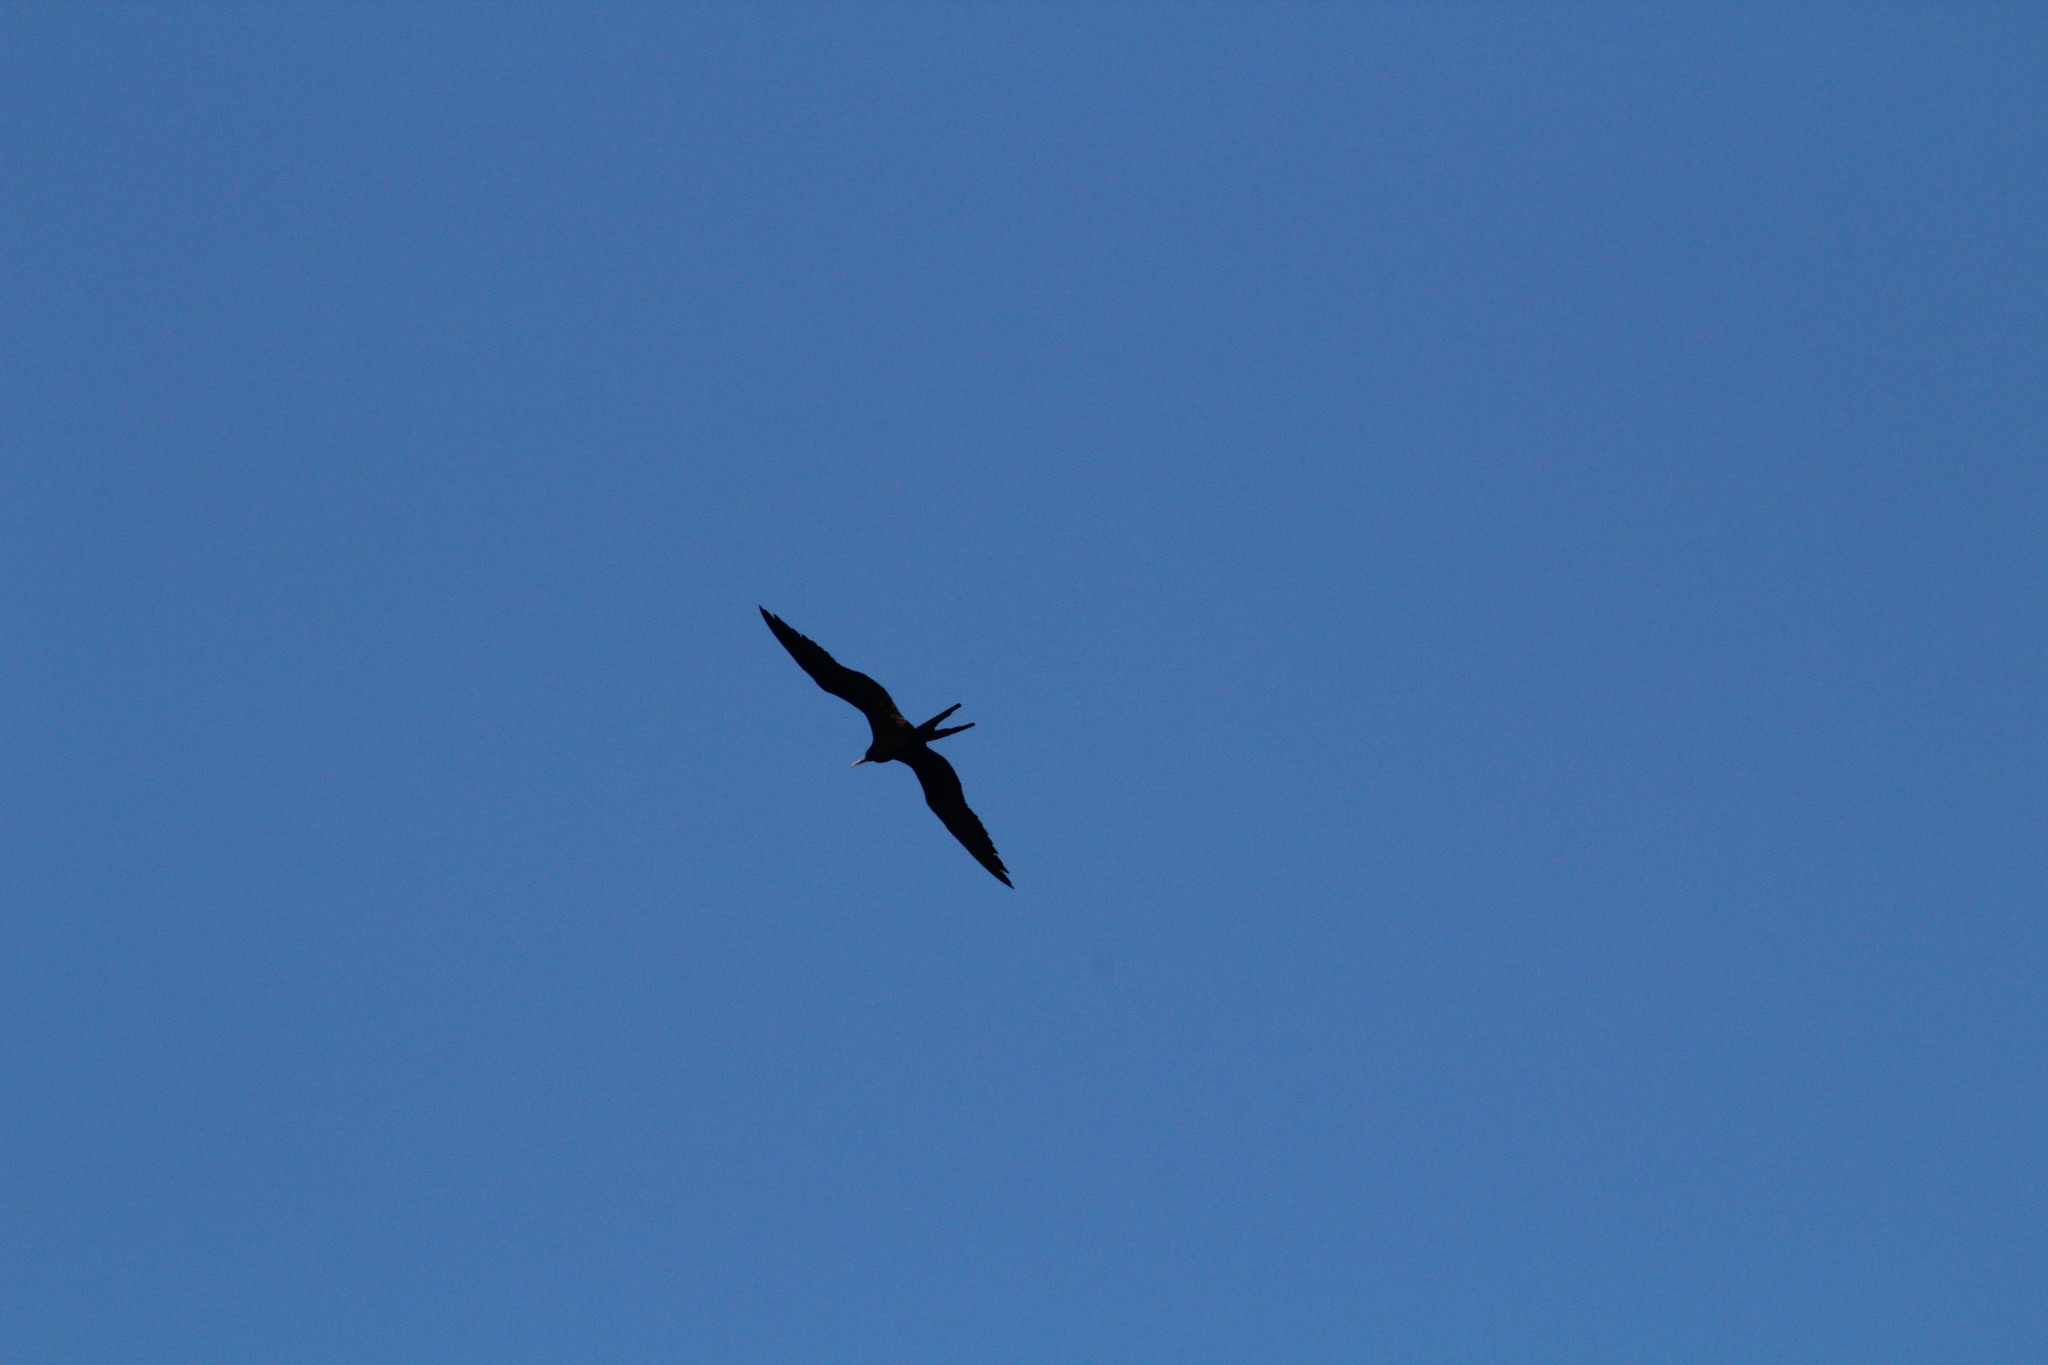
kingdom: Animalia
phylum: Chordata
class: Aves
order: Suliformes
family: Fregatidae
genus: Fregata
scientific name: Fregata magnificens
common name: Magnificent frigatebird
